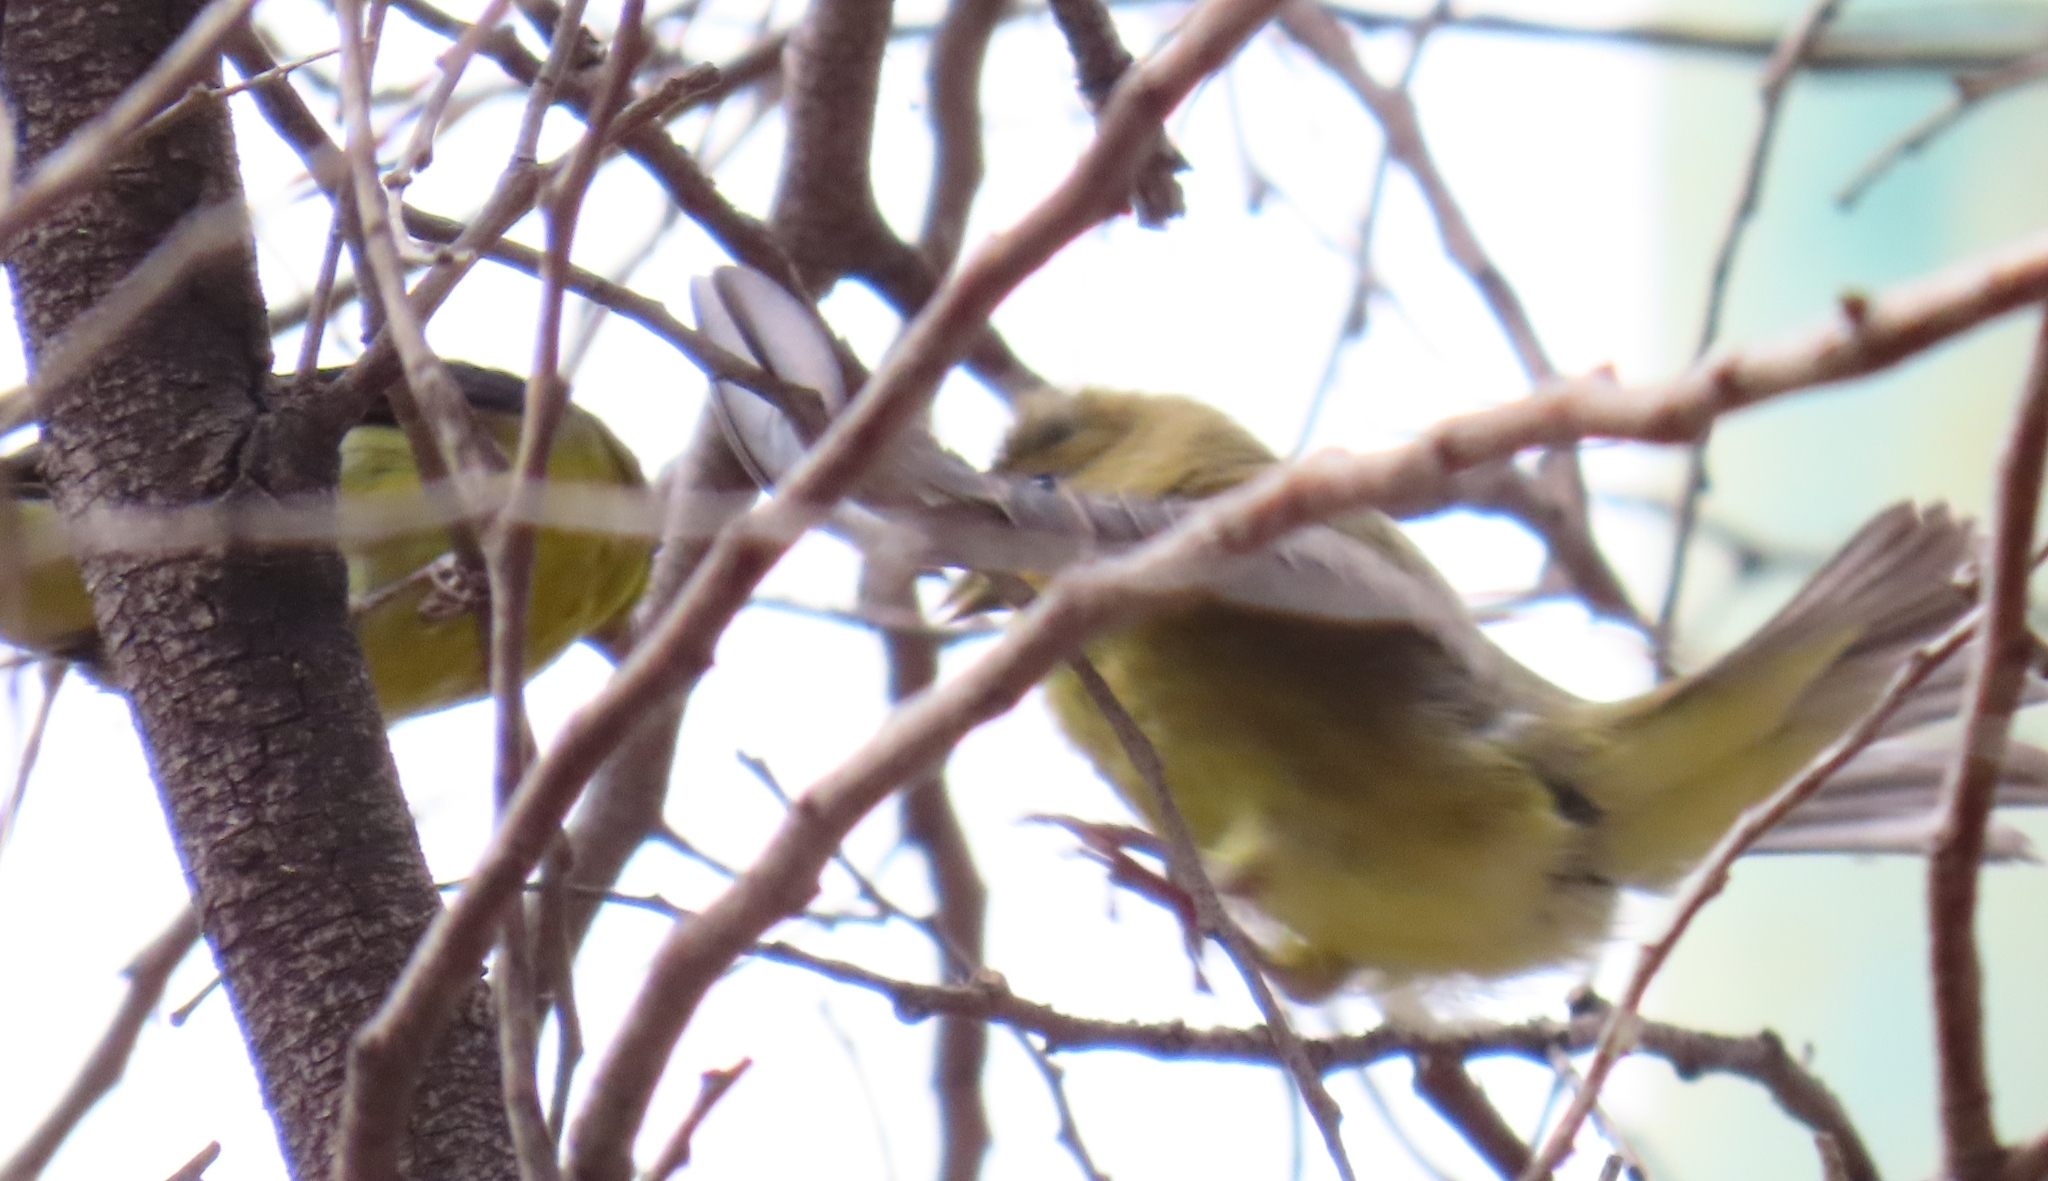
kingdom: Animalia
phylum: Chordata
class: Aves
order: Passeriformes
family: Fringillidae
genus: Spinus
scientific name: Spinus psaltria
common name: Lesser goldfinch
